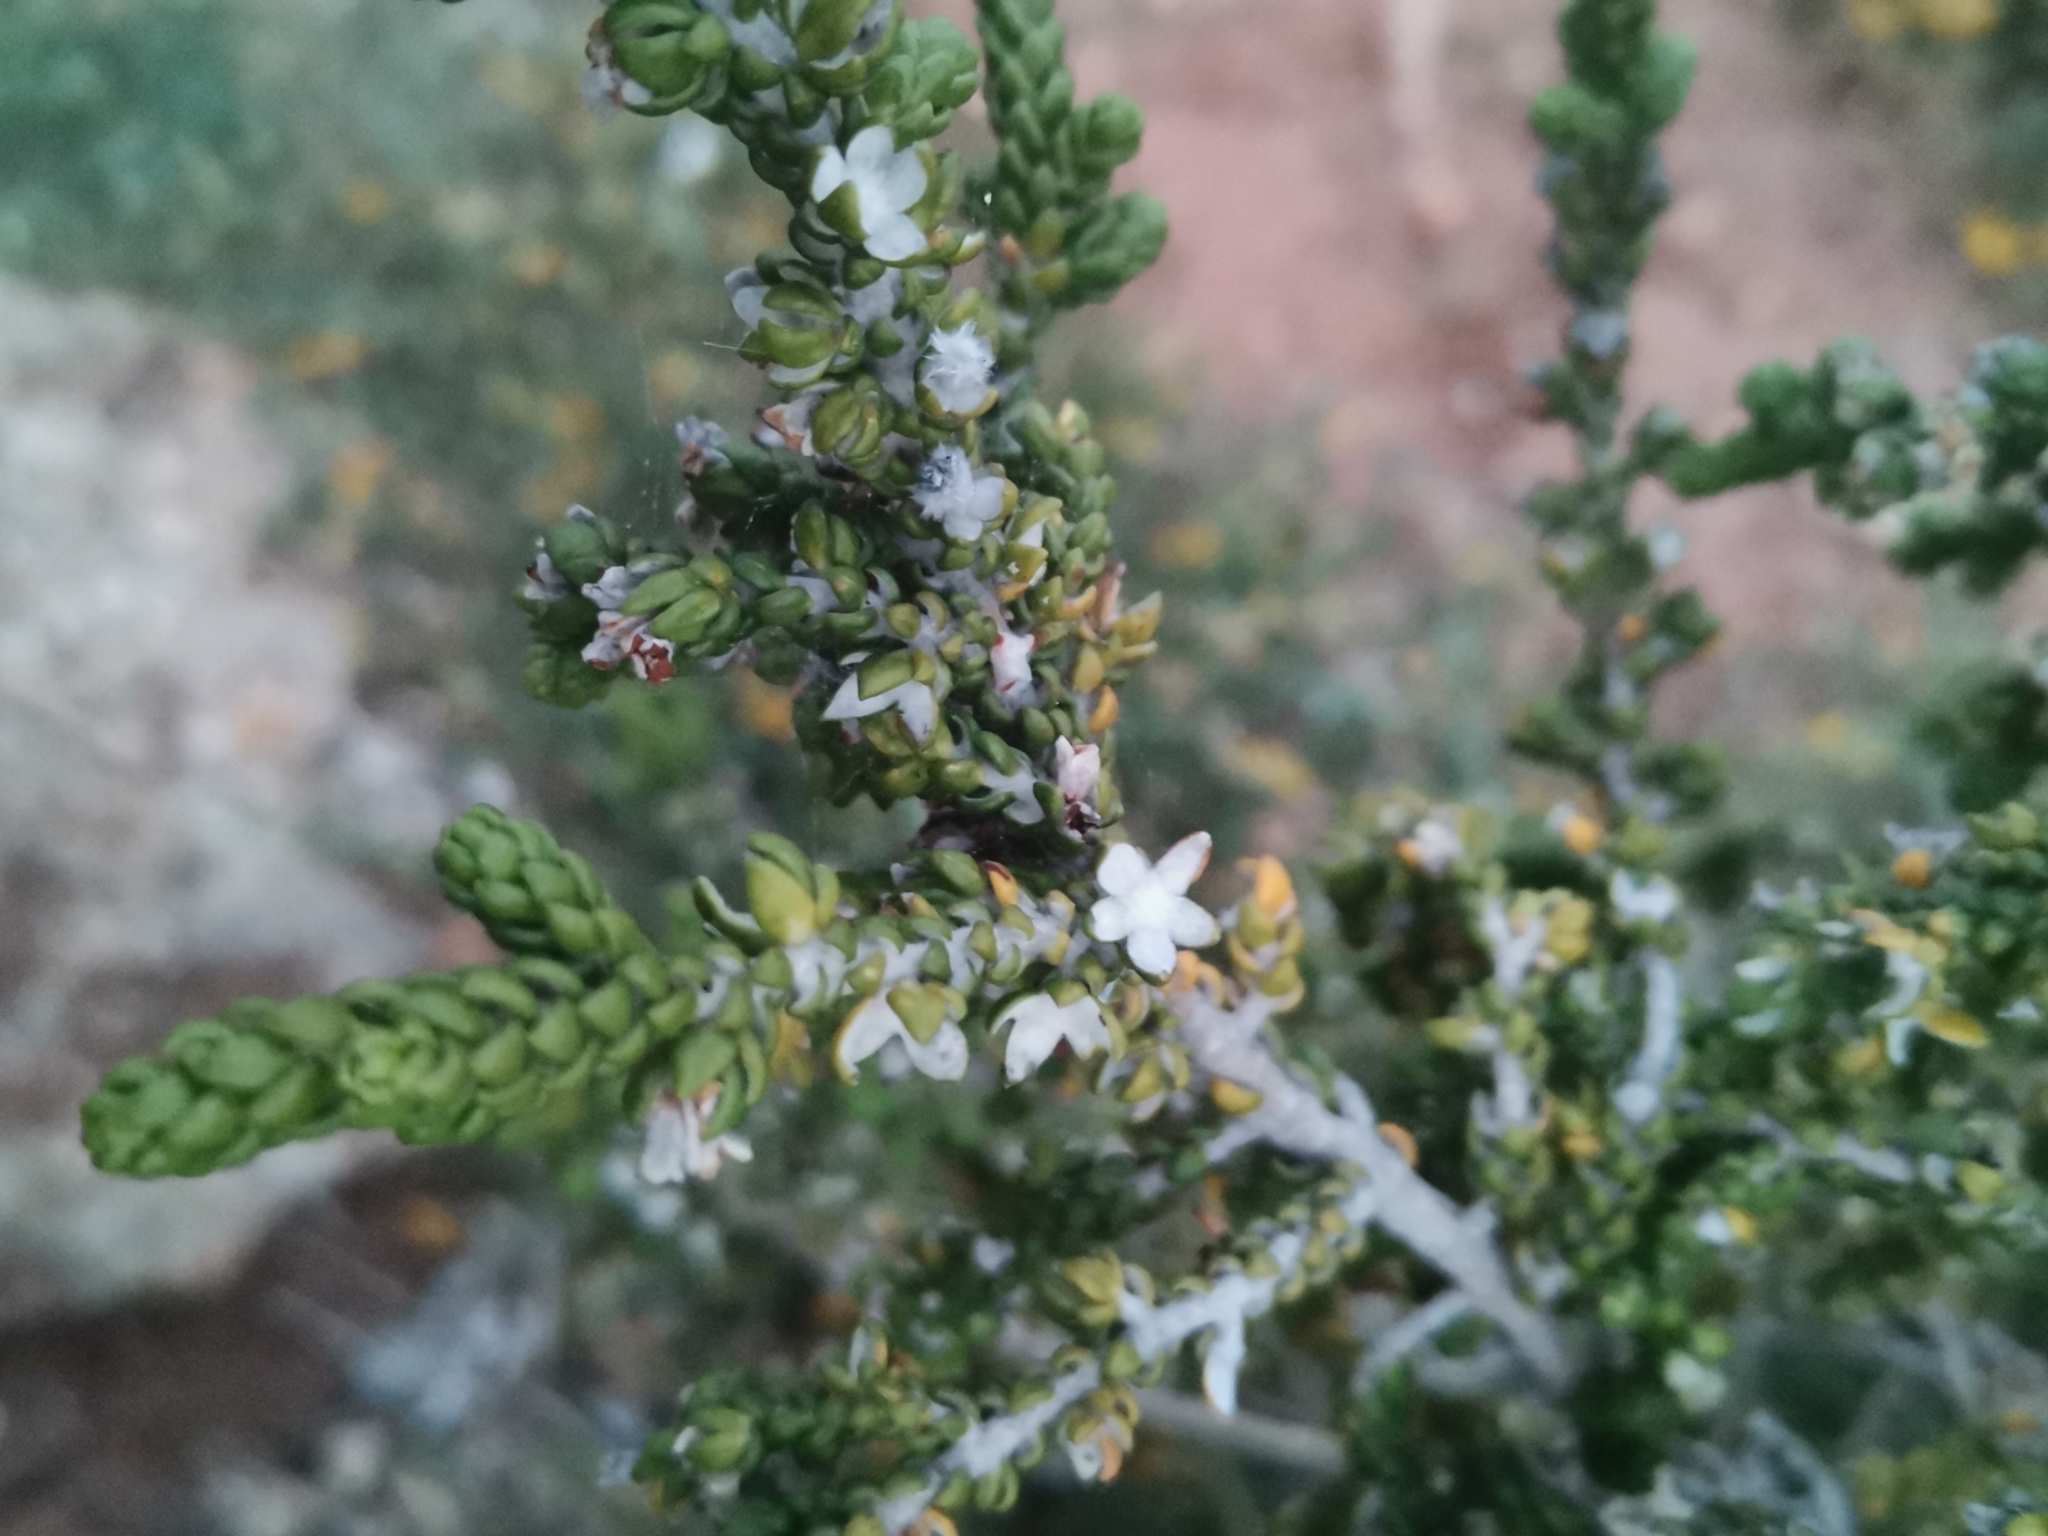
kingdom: Plantae
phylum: Tracheophyta
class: Magnoliopsida
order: Malvales
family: Thymelaeaceae
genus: Thymelaea
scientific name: Thymelaea hirsuta
